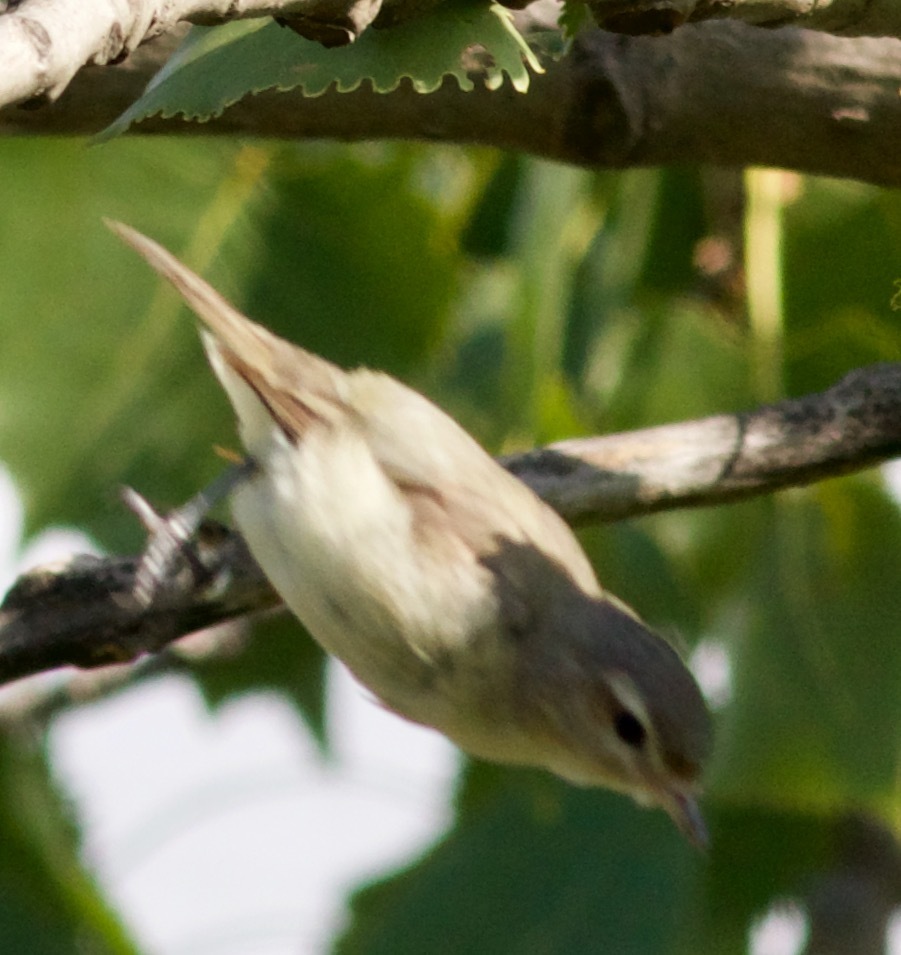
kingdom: Animalia
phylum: Chordata
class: Aves
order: Passeriformes
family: Vireonidae
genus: Vireo
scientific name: Vireo gilvus
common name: Warbling vireo
